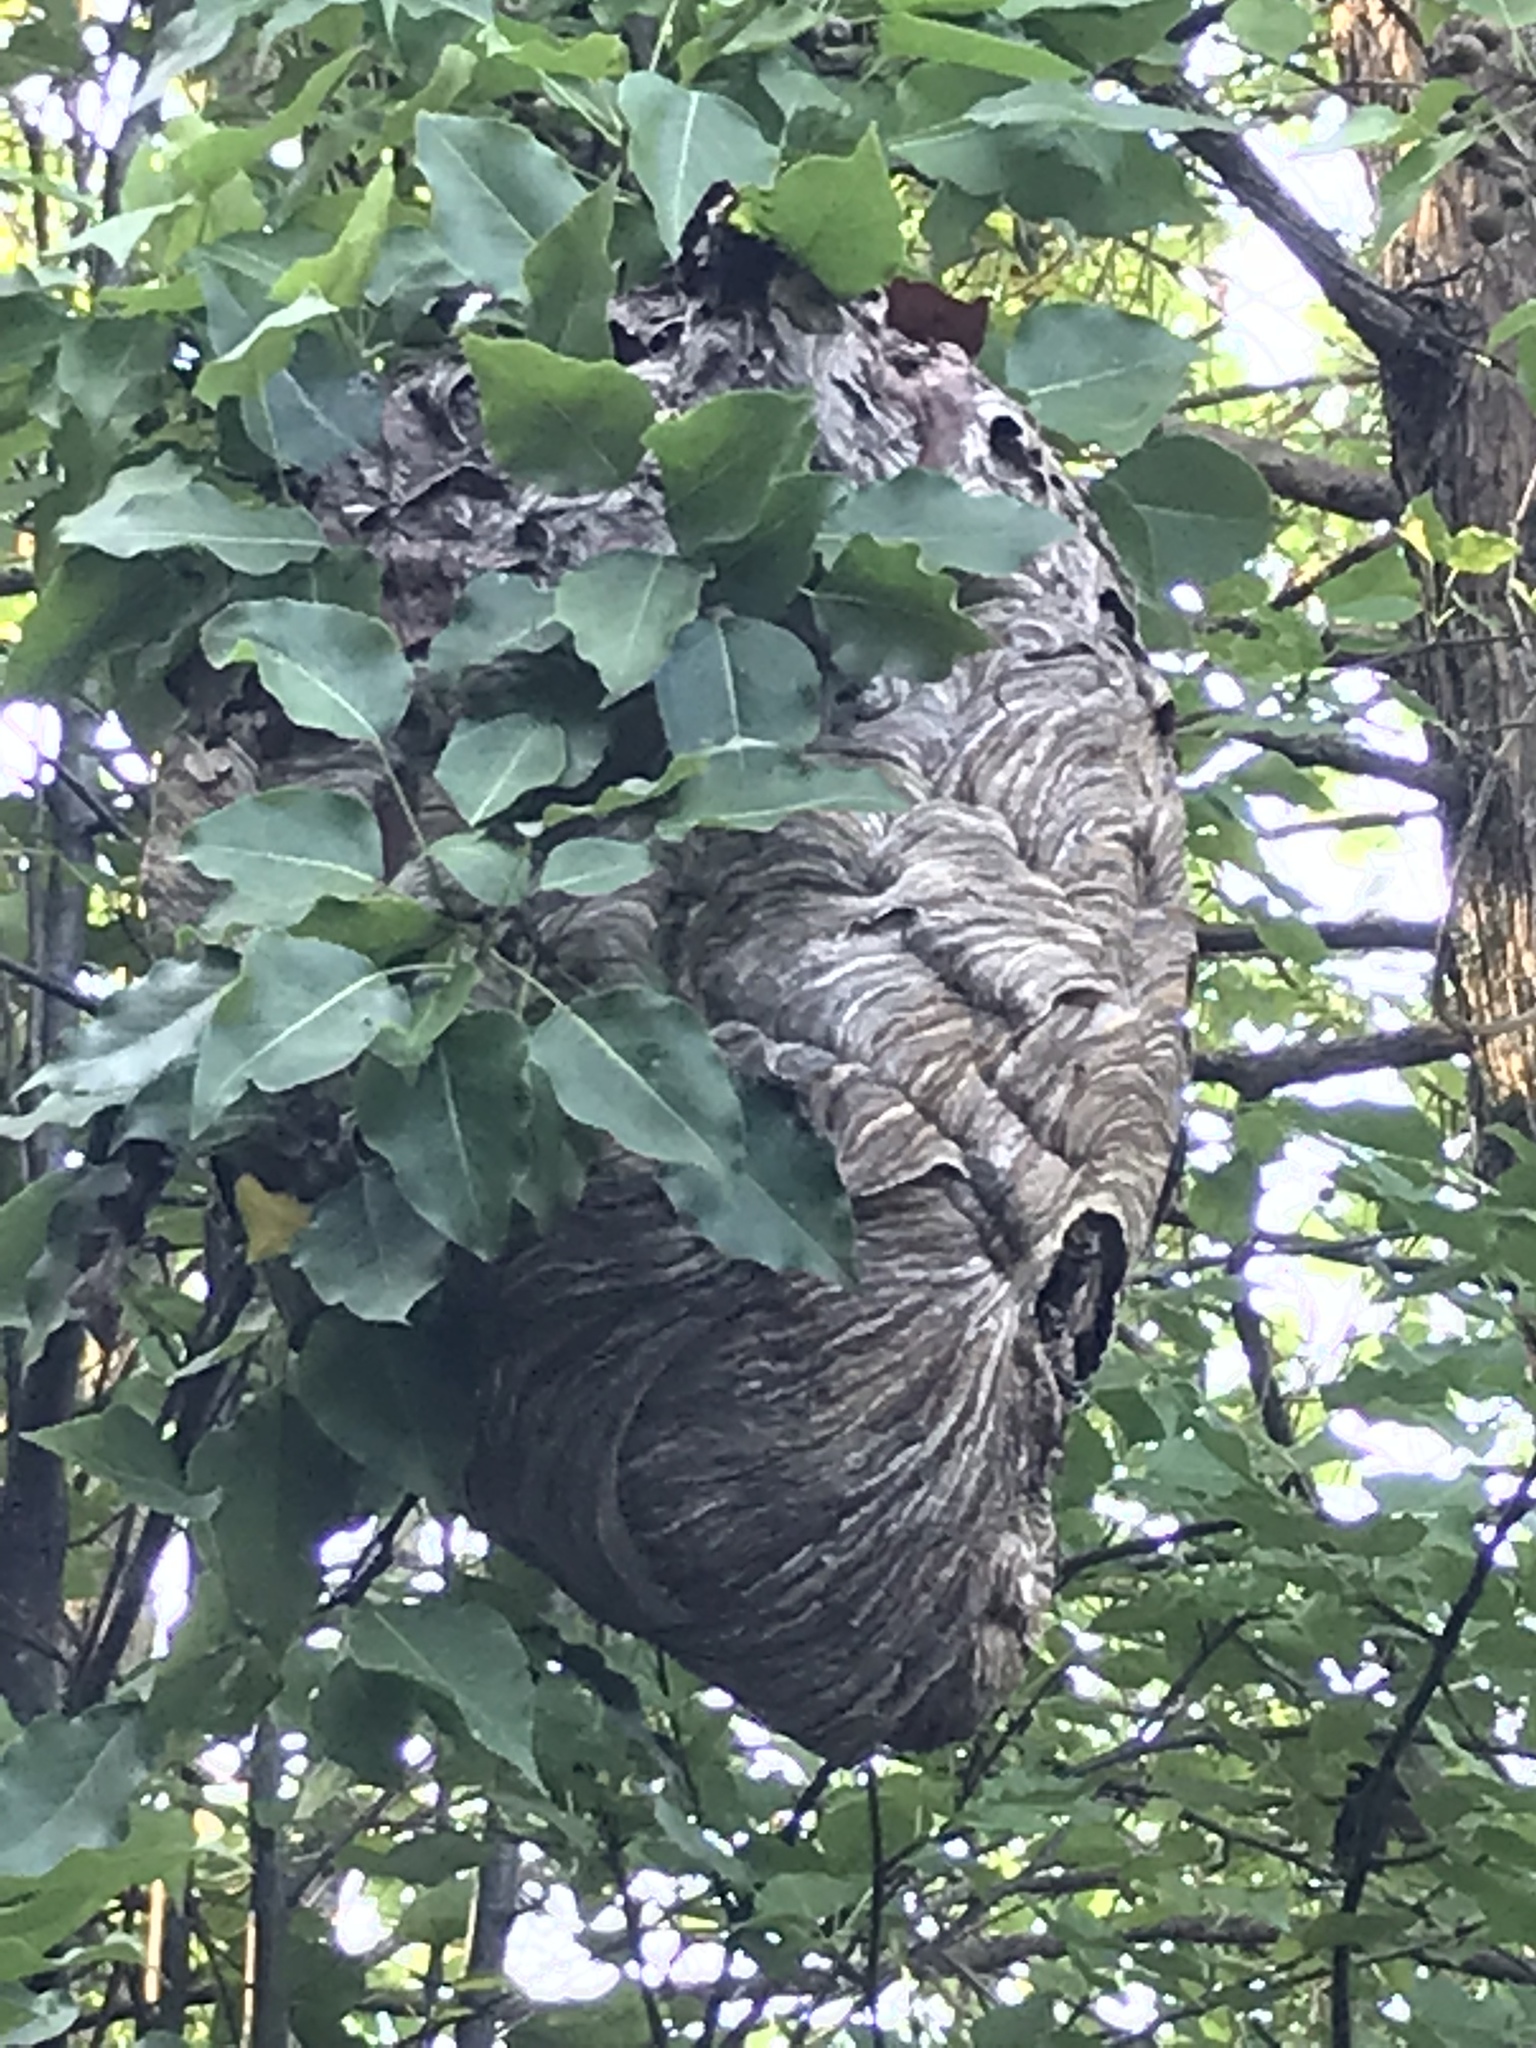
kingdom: Animalia
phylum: Arthropoda
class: Insecta
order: Hymenoptera
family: Vespidae
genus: Dolichovespula
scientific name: Dolichovespula maculata
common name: Bald-faced hornet
